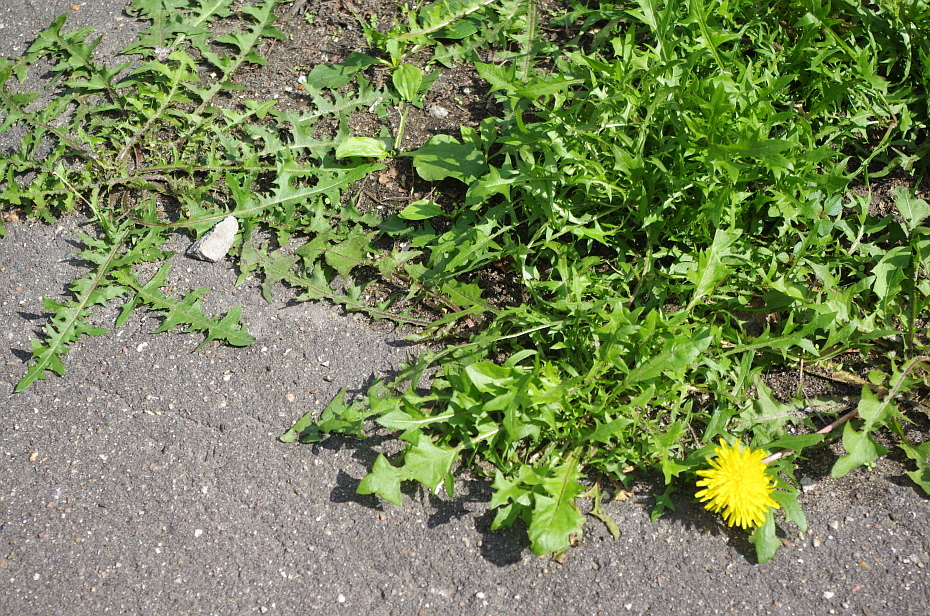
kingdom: Plantae
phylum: Tracheophyta
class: Magnoliopsida
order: Asterales
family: Asteraceae
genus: Taraxacum
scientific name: Taraxacum officinale
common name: Common dandelion
